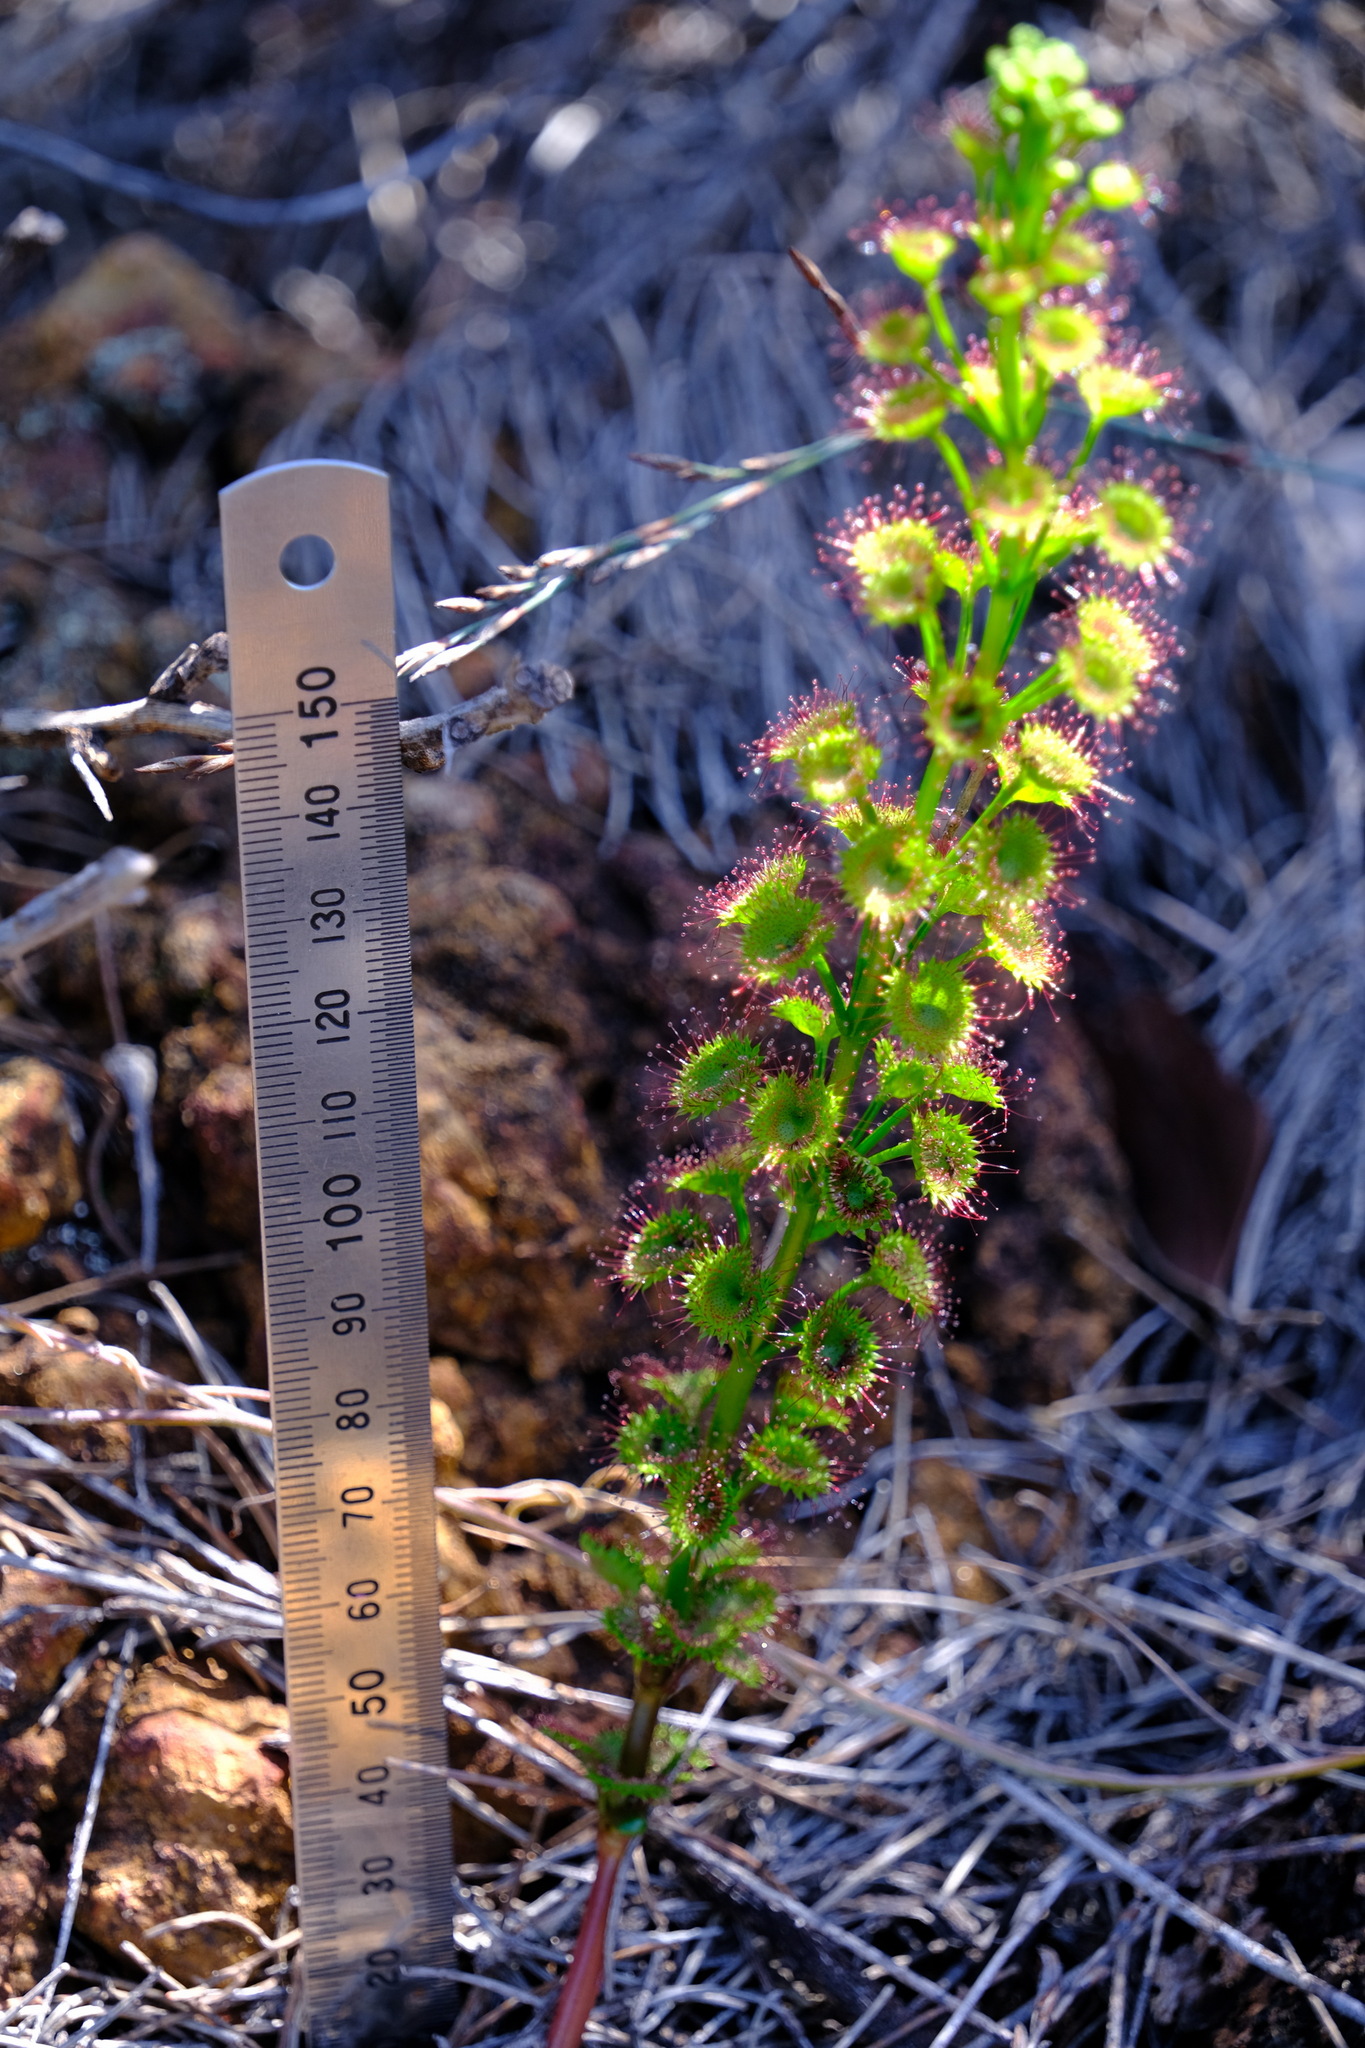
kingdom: Plantae
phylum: Tracheophyta
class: Magnoliopsida
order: Caryophyllales
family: Droseraceae
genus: Drosera
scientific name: Drosera stolonifera
